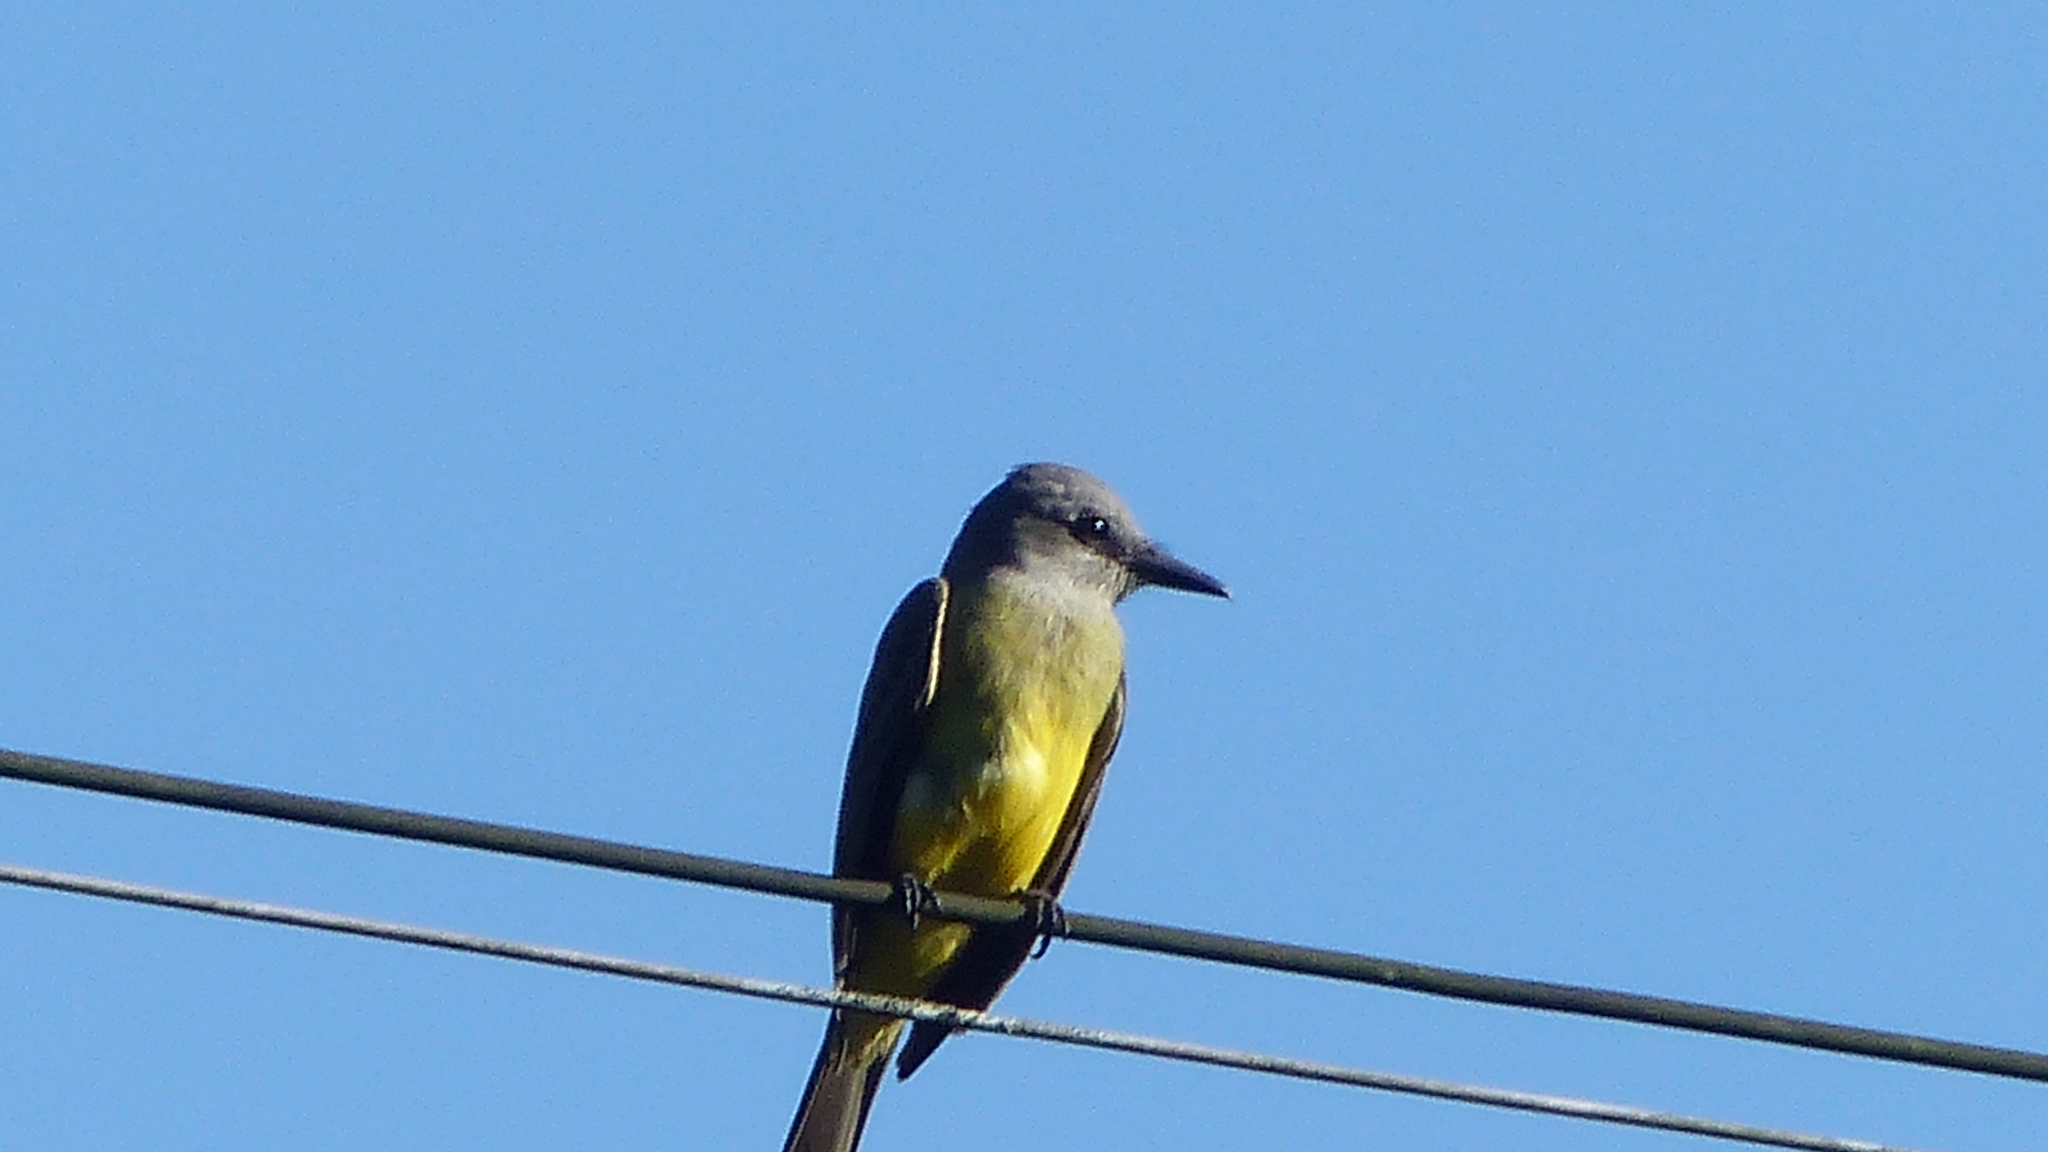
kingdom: Animalia
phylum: Chordata
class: Aves
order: Passeriformes
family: Tyrannidae
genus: Tyrannus
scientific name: Tyrannus melancholicus
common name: Tropical kingbird
